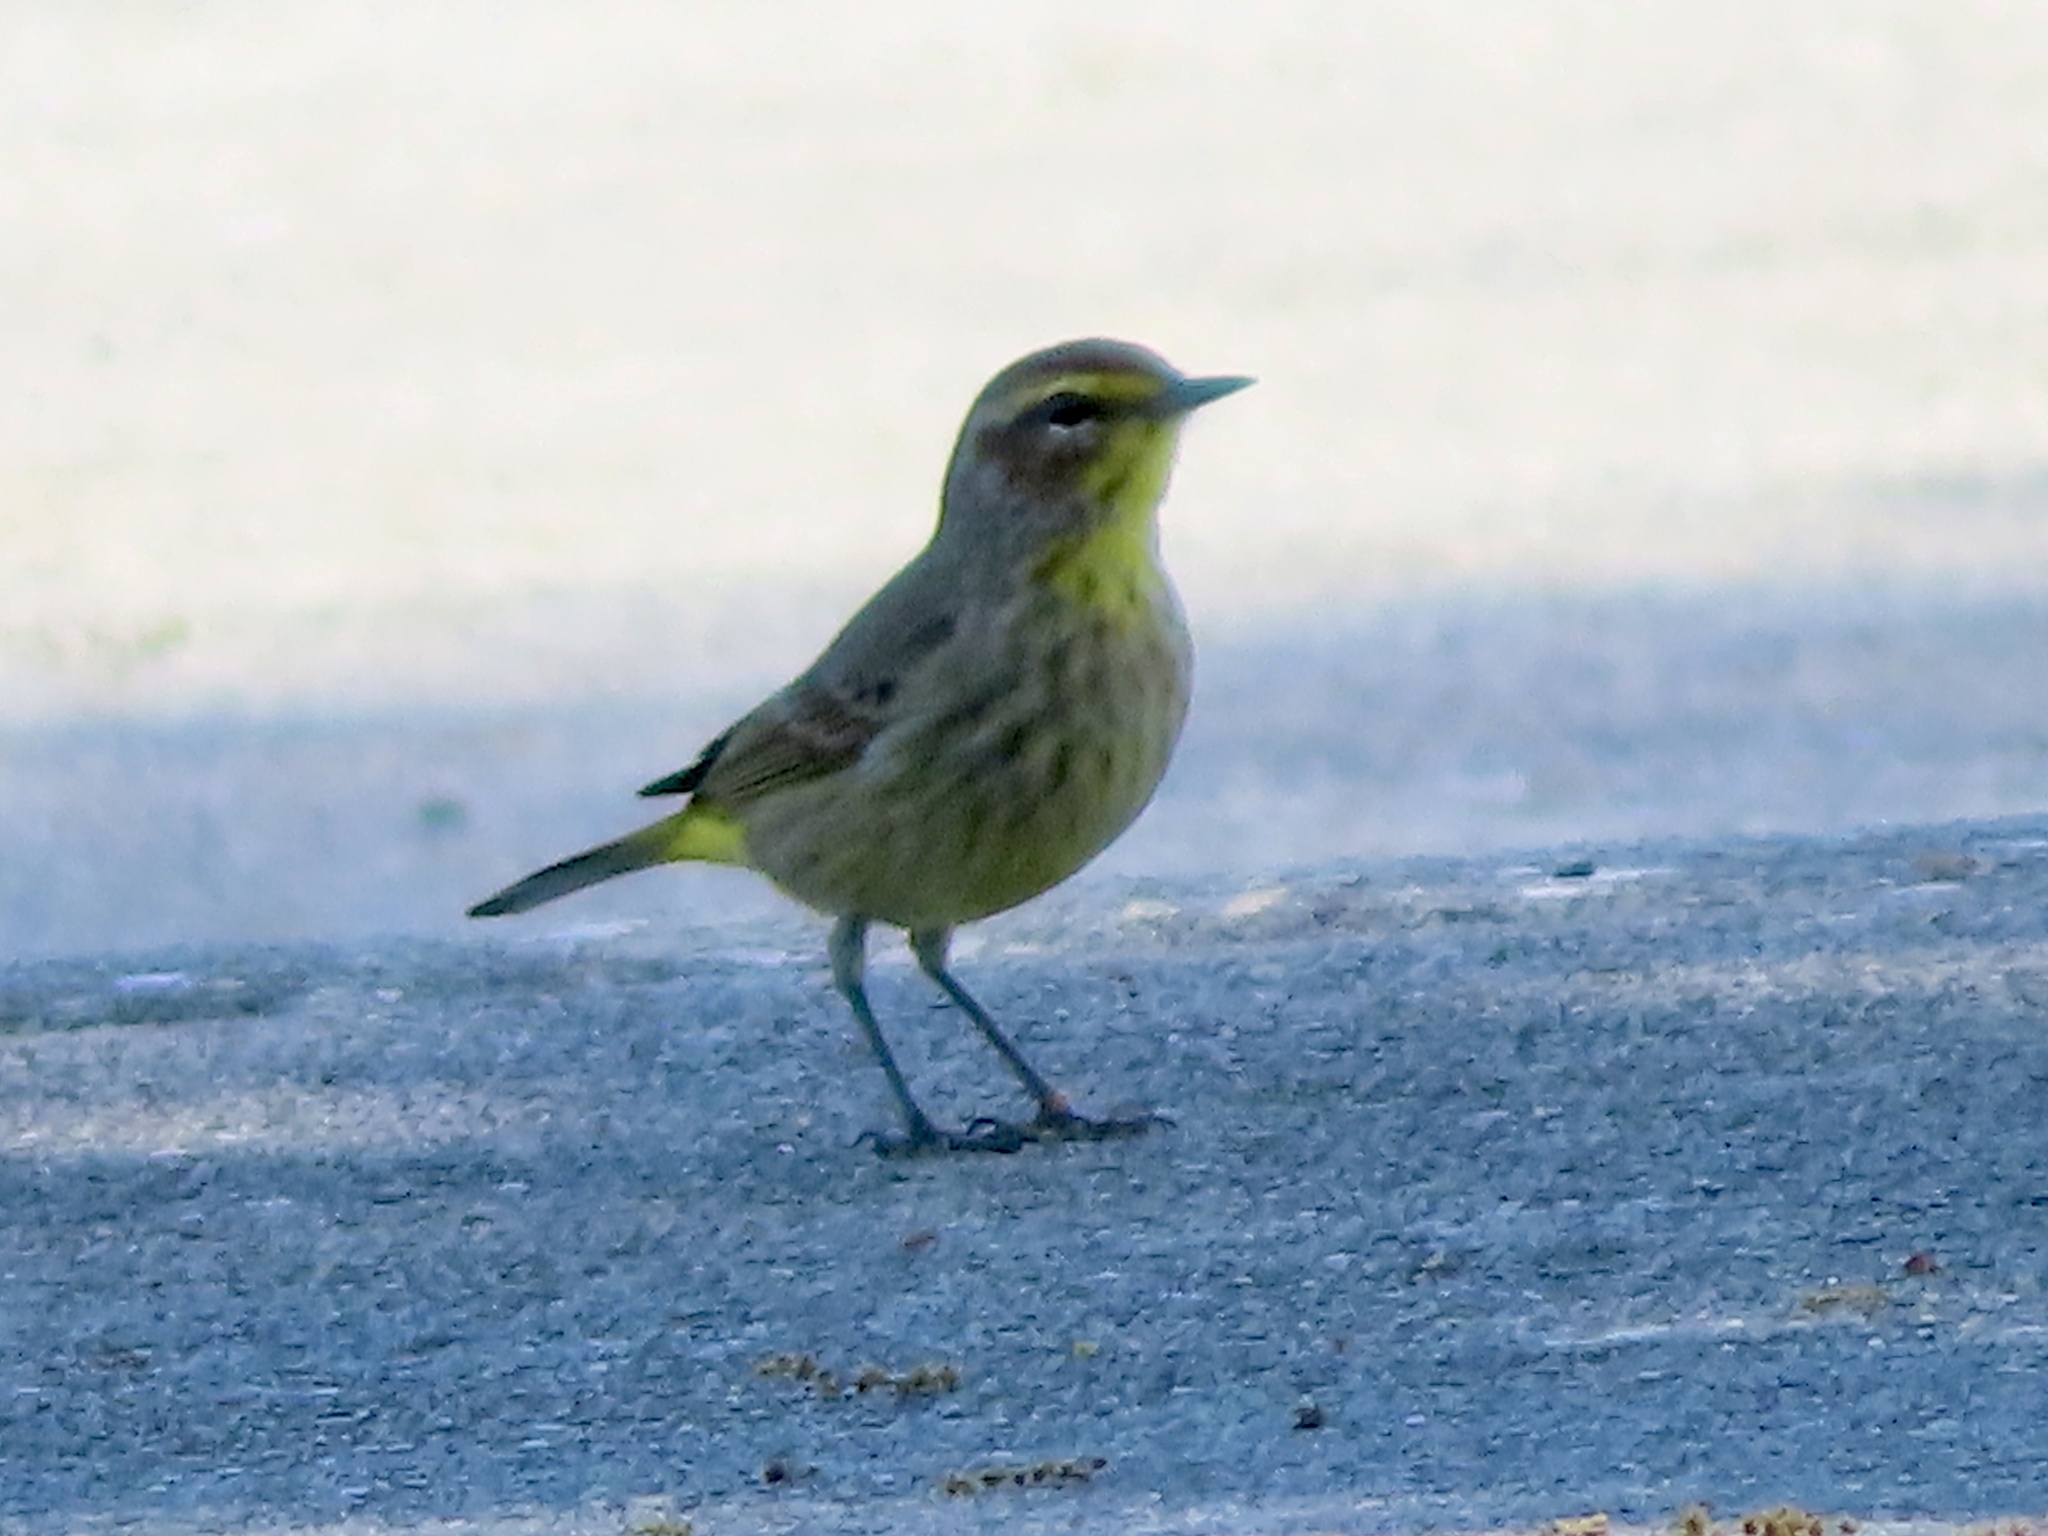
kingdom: Animalia
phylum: Chordata
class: Aves
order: Passeriformes
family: Parulidae
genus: Setophaga
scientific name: Setophaga palmarum
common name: Palm warbler
